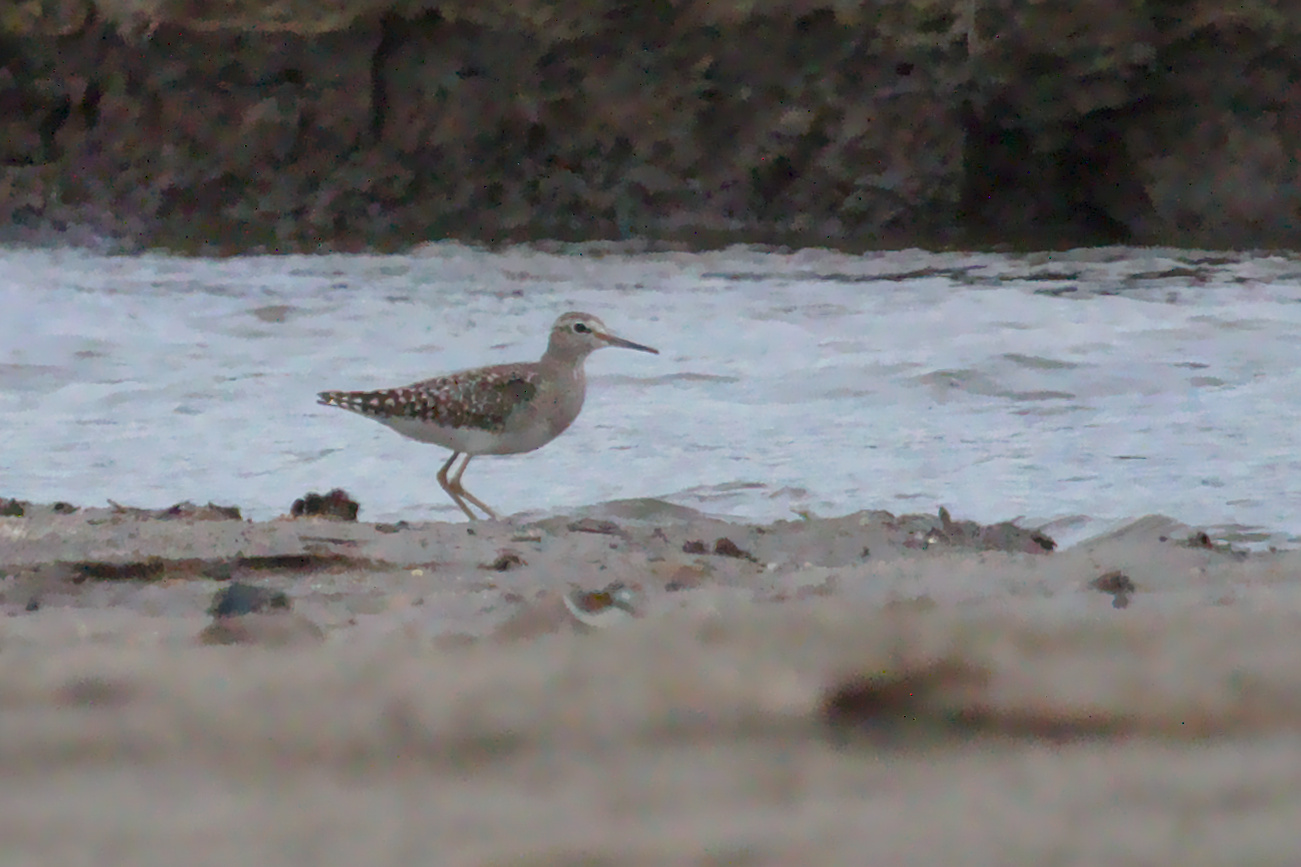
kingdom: Animalia
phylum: Chordata
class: Aves
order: Charadriiformes
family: Scolopacidae
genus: Tringa
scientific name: Tringa glareola
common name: Wood sandpiper
